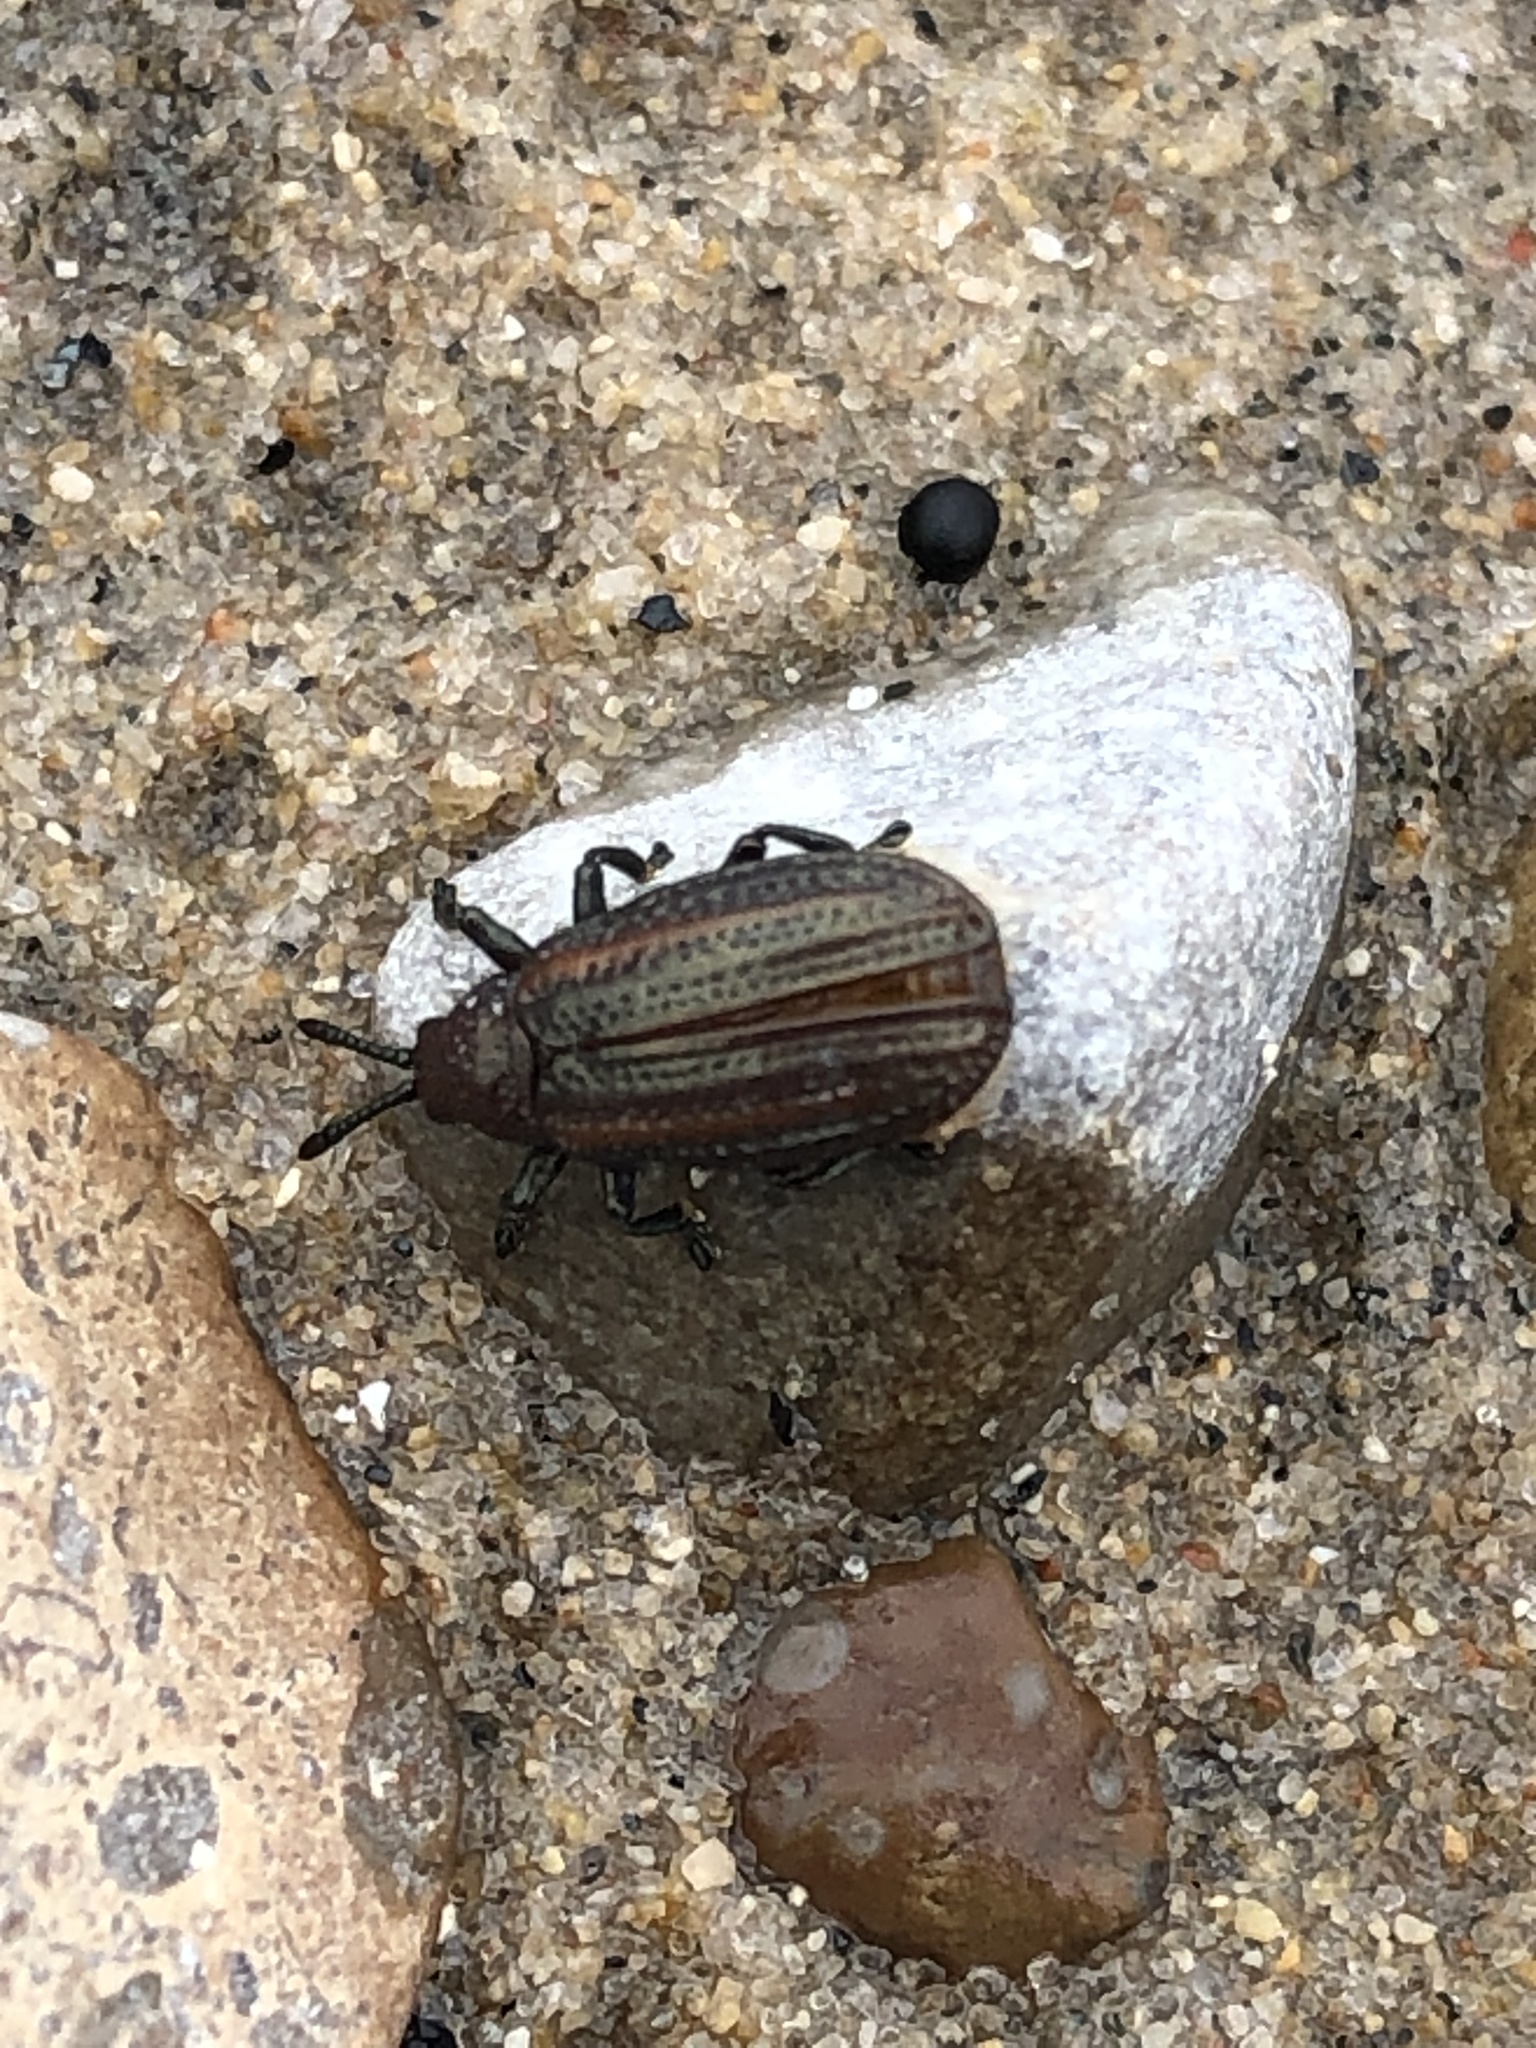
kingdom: Animalia
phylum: Arthropoda
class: Insecta
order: Coleoptera
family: Chrysomelidae
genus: Microrhopala
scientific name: Microrhopala vittata
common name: Goldenrod leaf miner beetle
